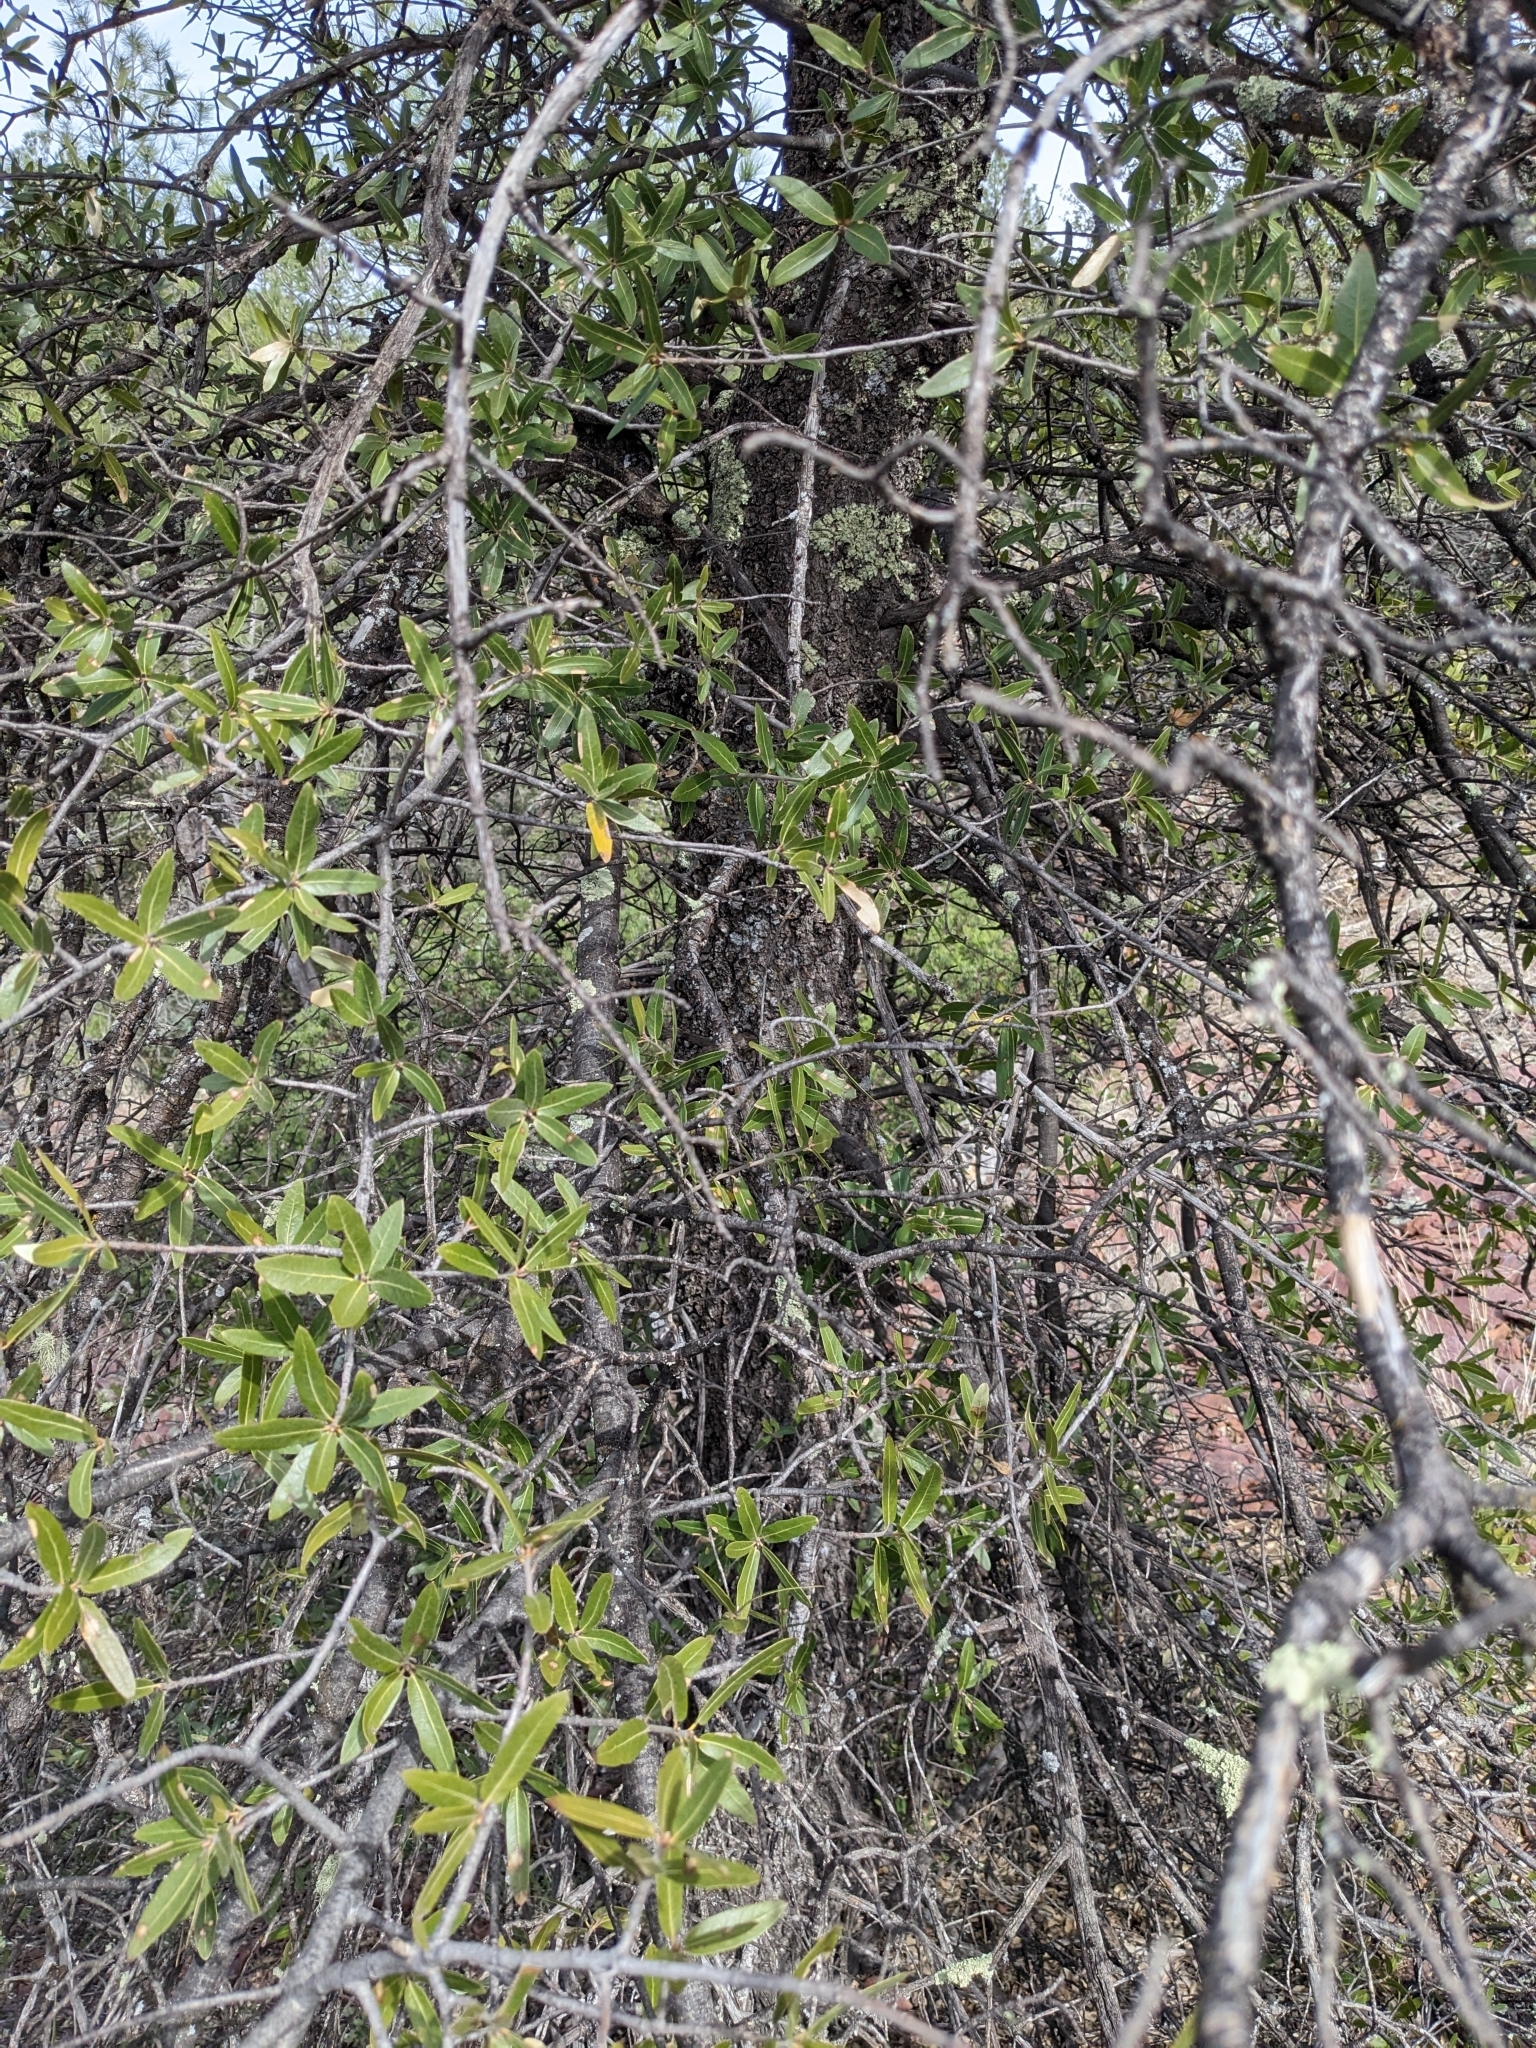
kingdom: Plantae
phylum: Tracheophyta
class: Magnoliopsida
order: Fagales
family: Fagaceae
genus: Quercus
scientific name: Quercus emoryi
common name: Emory oak
